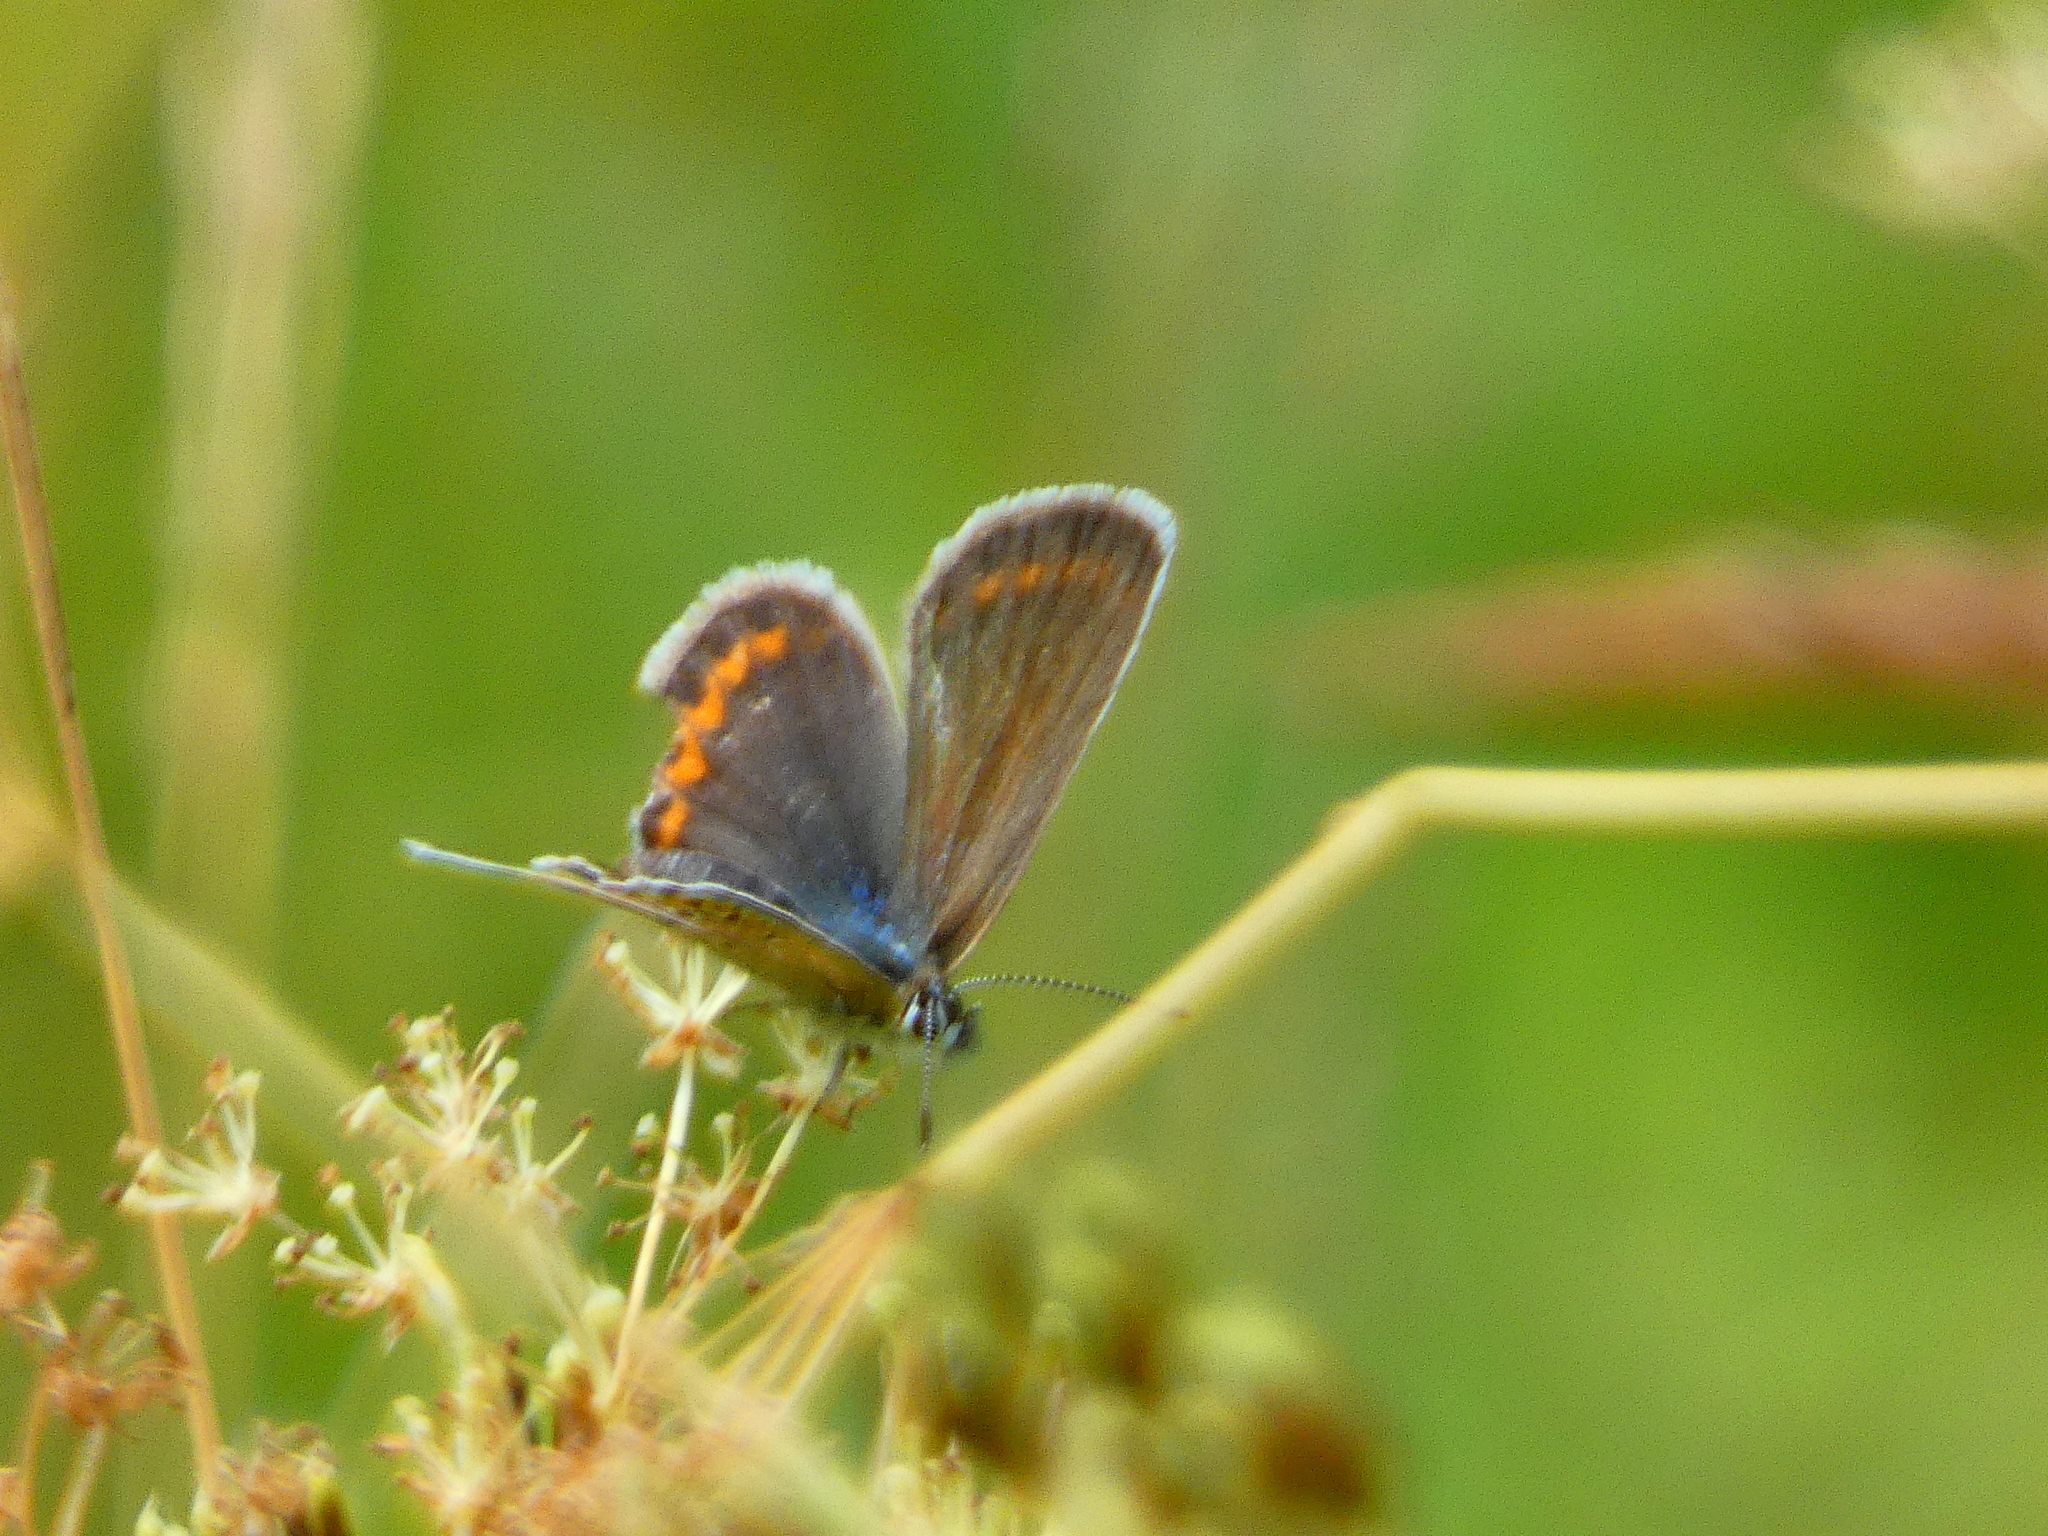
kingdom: Animalia
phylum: Arthropoda
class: Insecta
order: Lepidoptera
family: Lycaenidae
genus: Plebejus
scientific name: Plebejus argus
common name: Silver-studded blue
